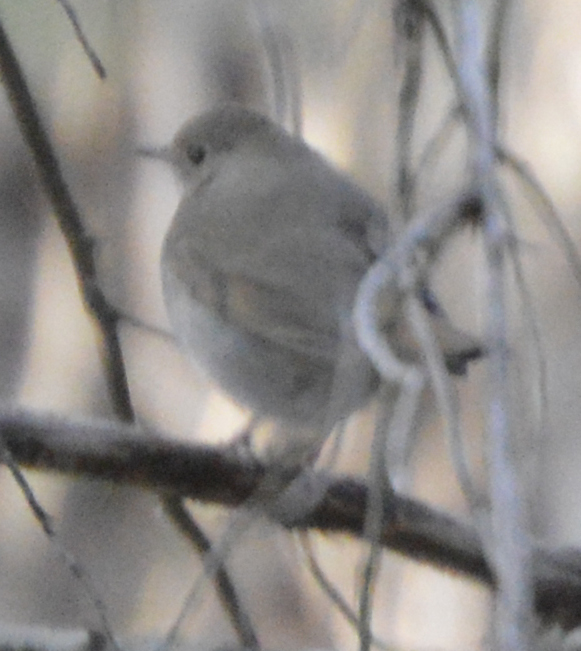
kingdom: Animalia
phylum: Chordata
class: Aves
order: Passeriformes
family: Turdidae
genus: Catharus
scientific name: Catharus guttatus
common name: Hermit thrush
